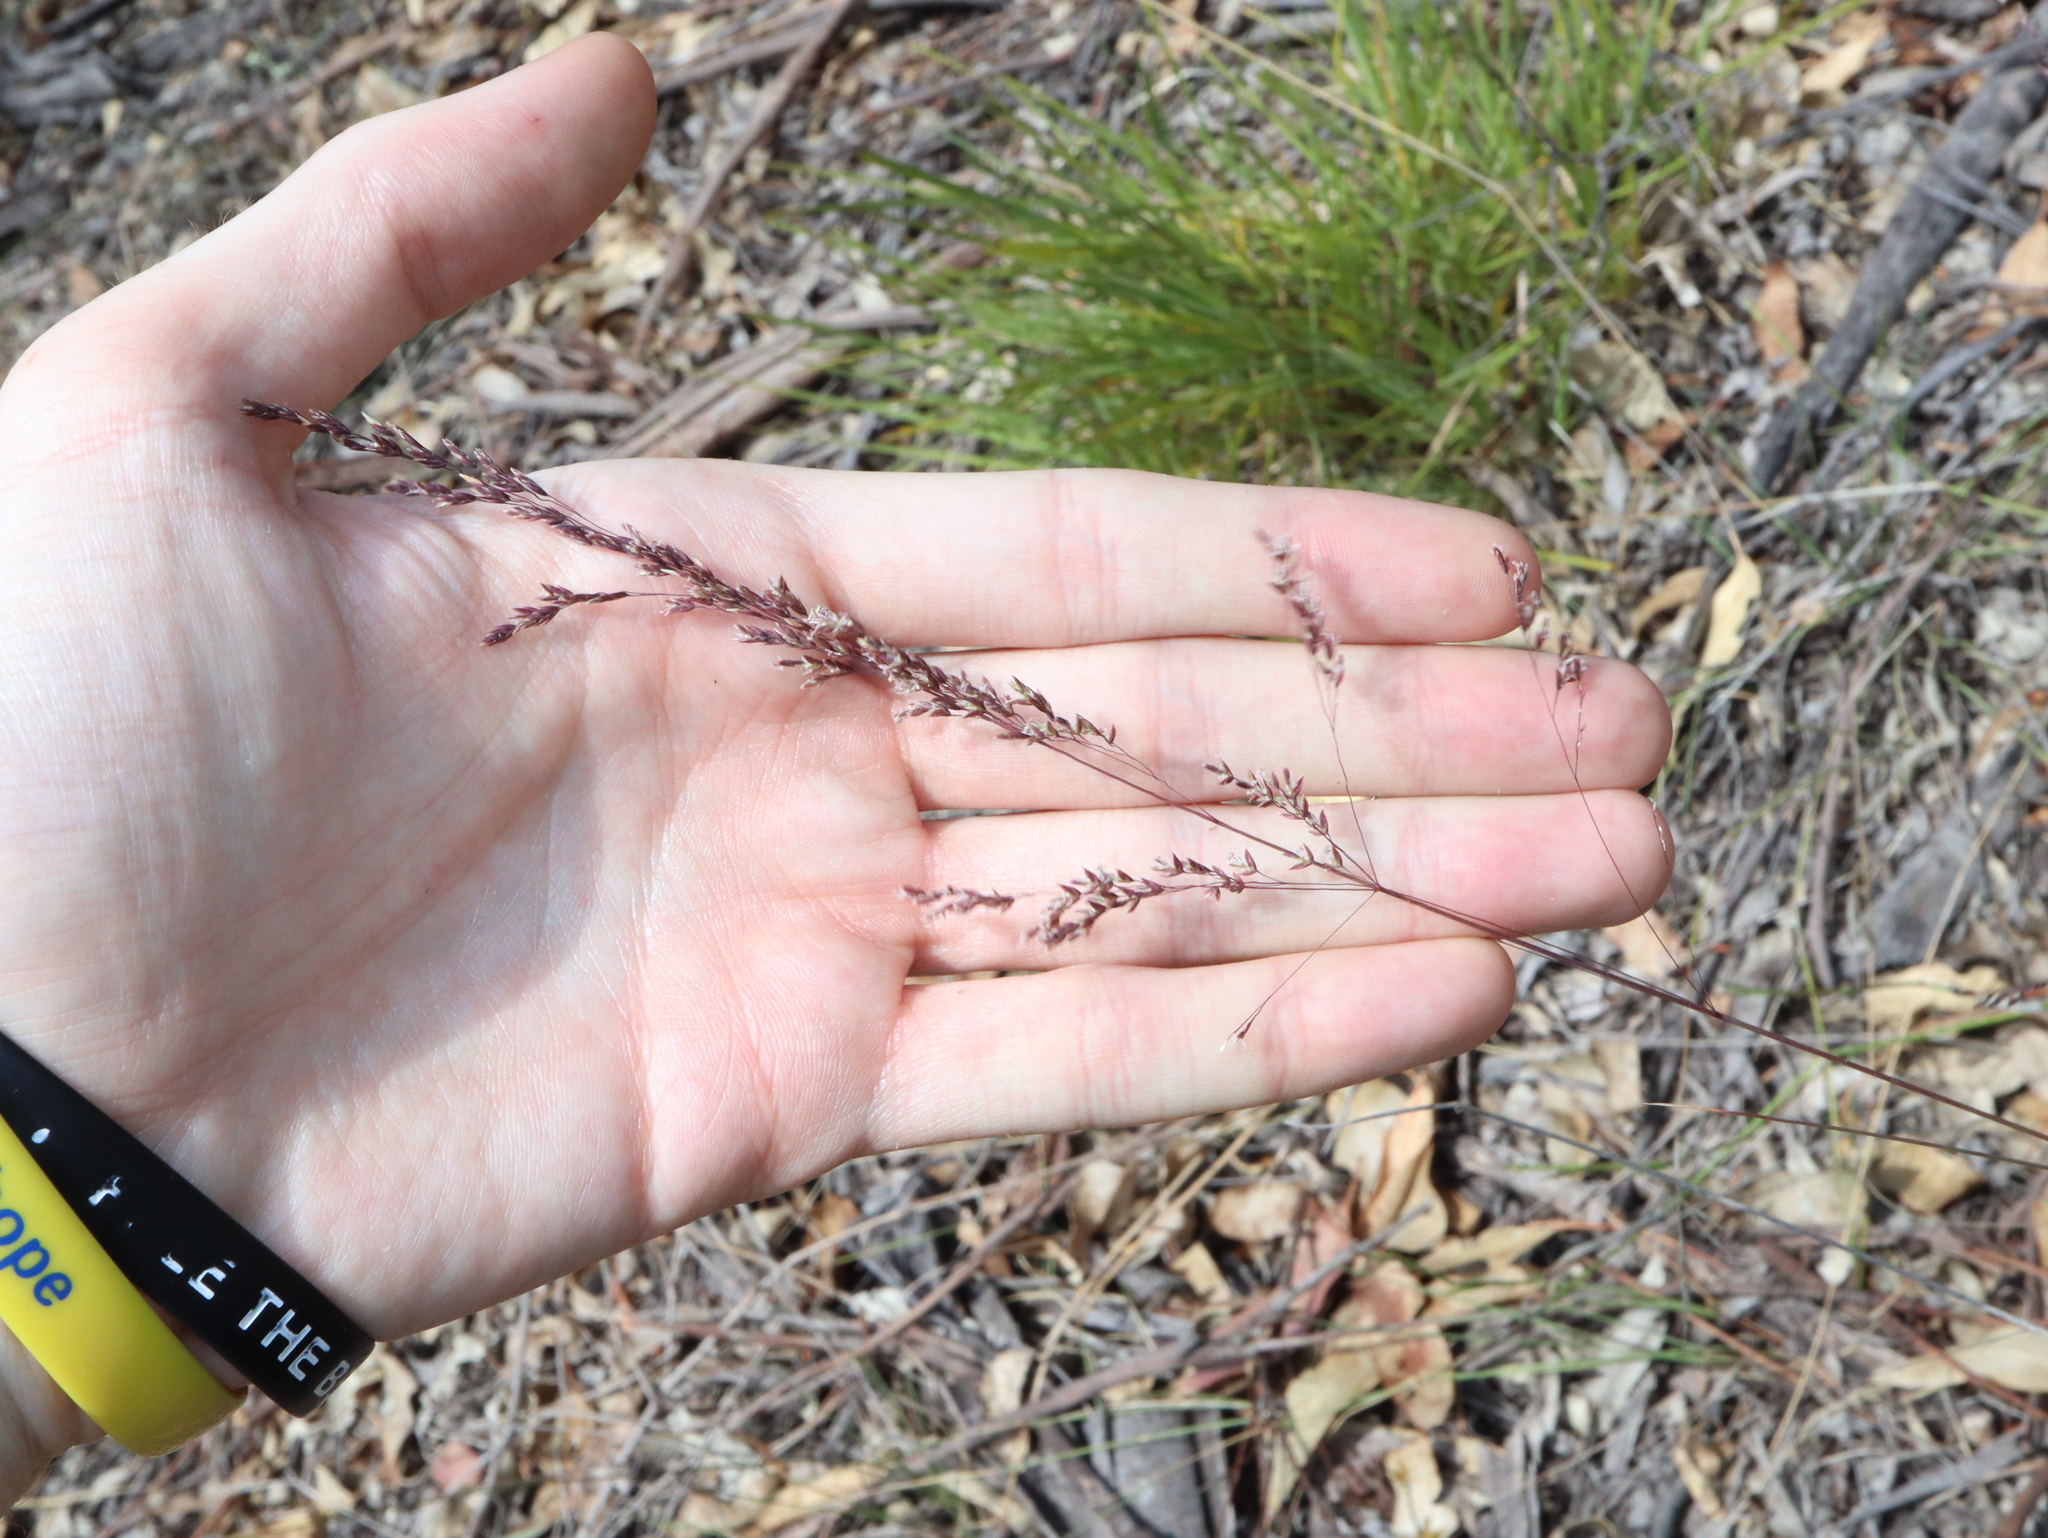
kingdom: Plantae
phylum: Tracheophyta
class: Liliopsida
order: Poales
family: Poaceae
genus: Poa
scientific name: Poa sieberiana
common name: Tussock poa
